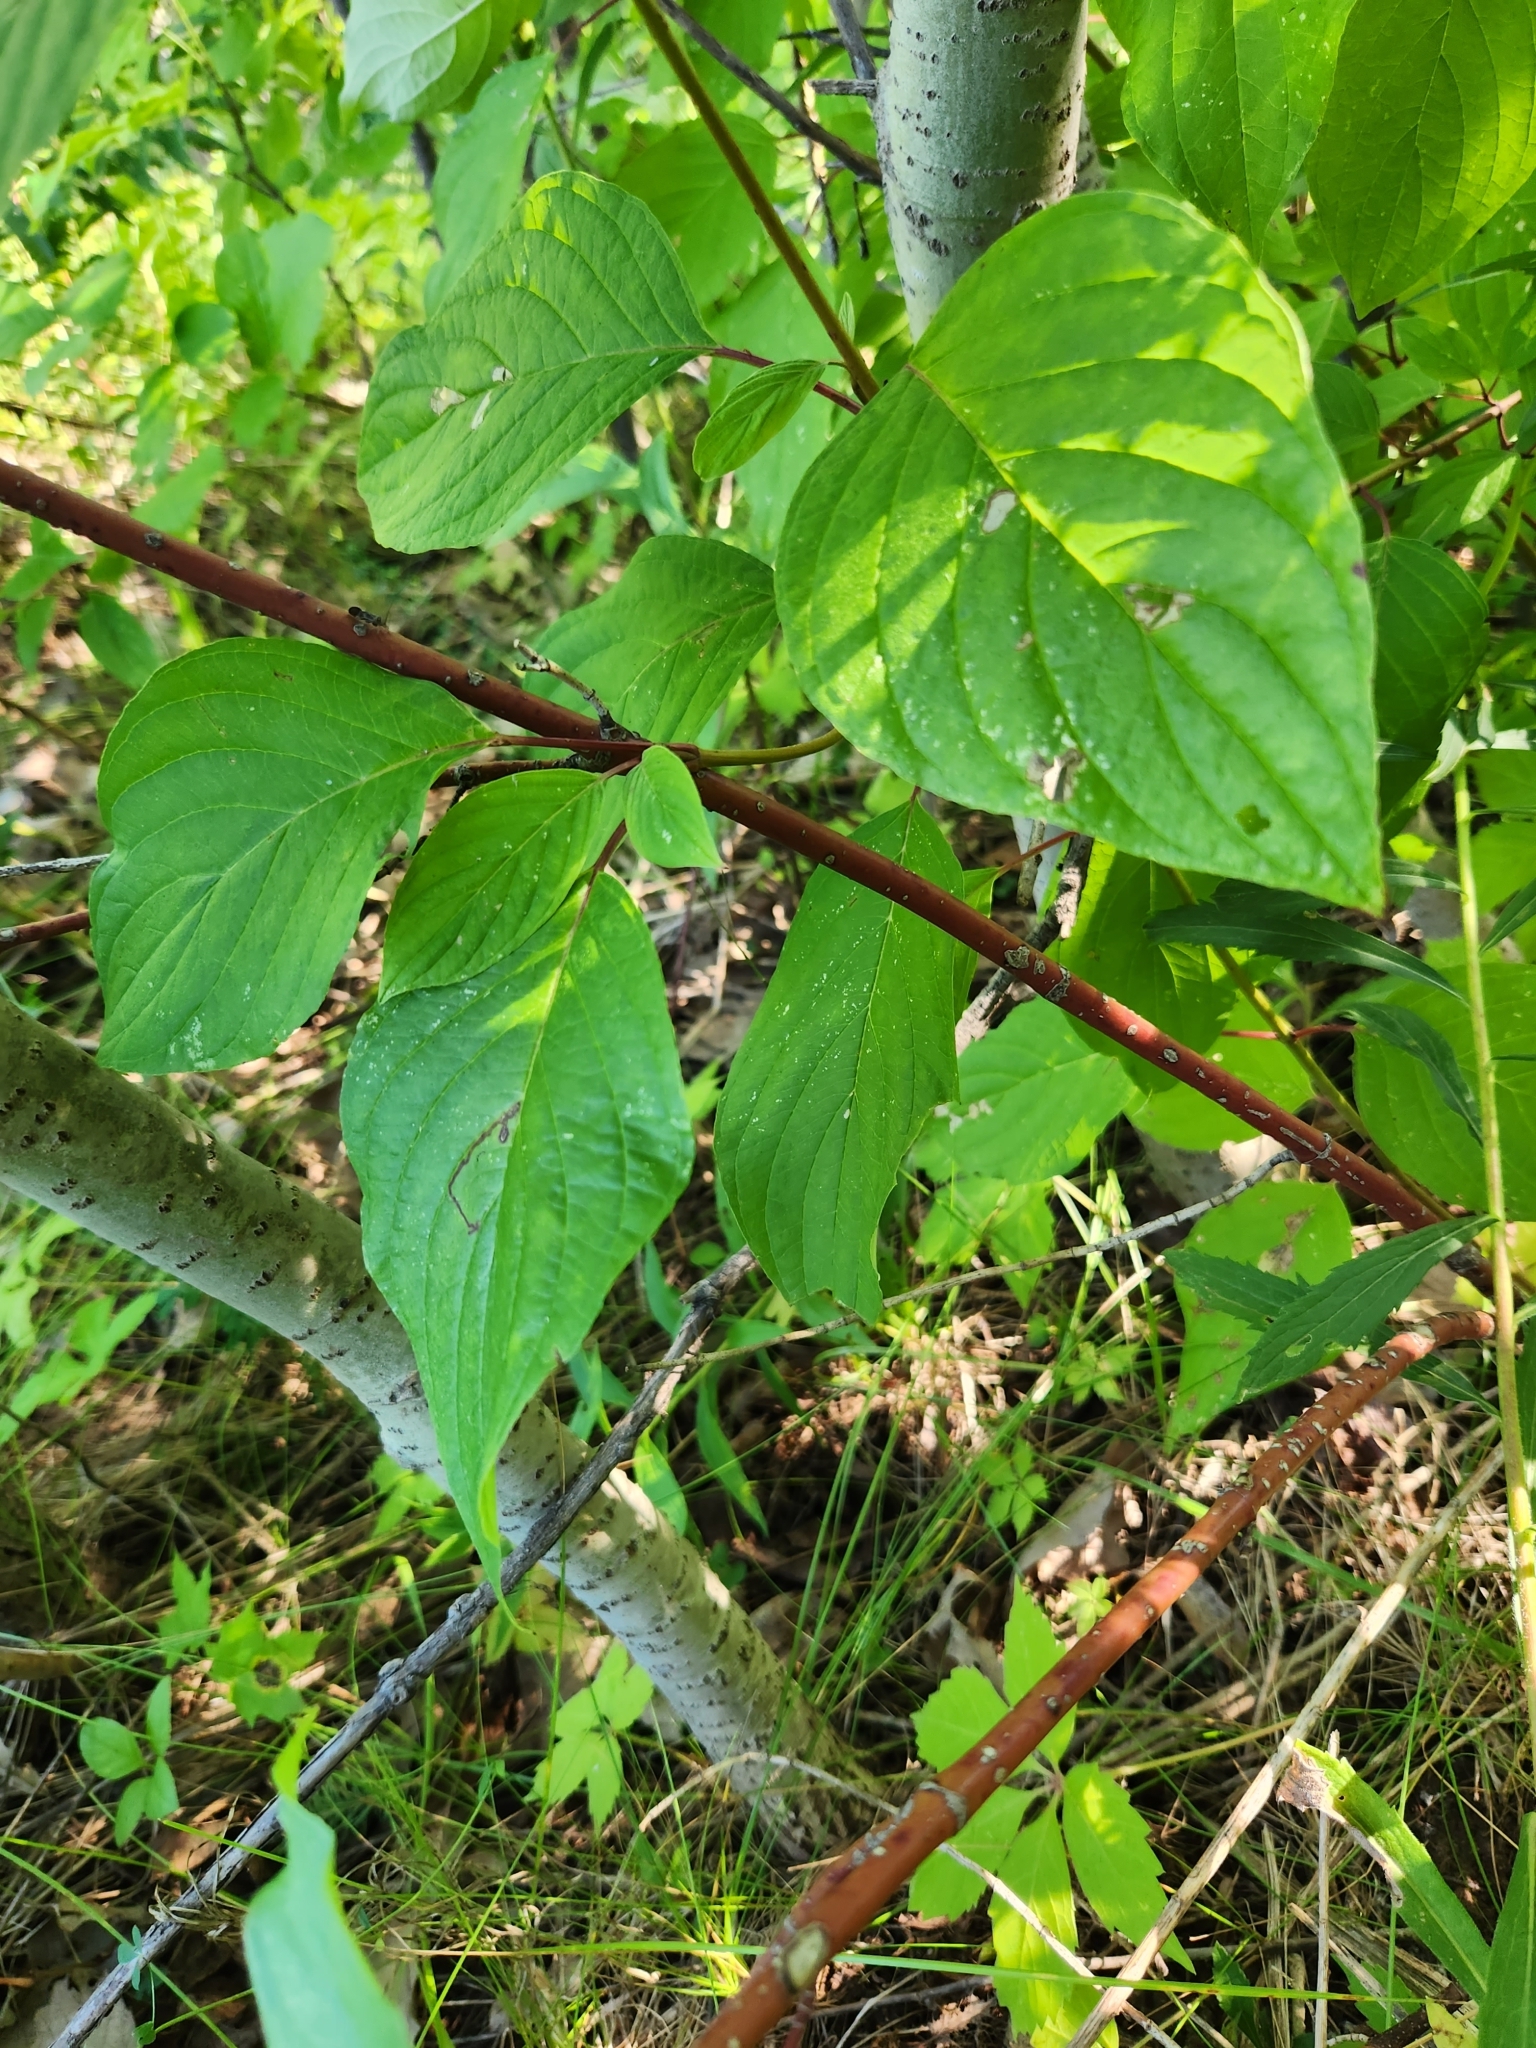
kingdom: Plantae
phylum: Tracheophyta
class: Magnoliopsida
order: Cornales
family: Cornaceae
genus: Cornus
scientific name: Cornus sericea
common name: Red-osier dogwood
